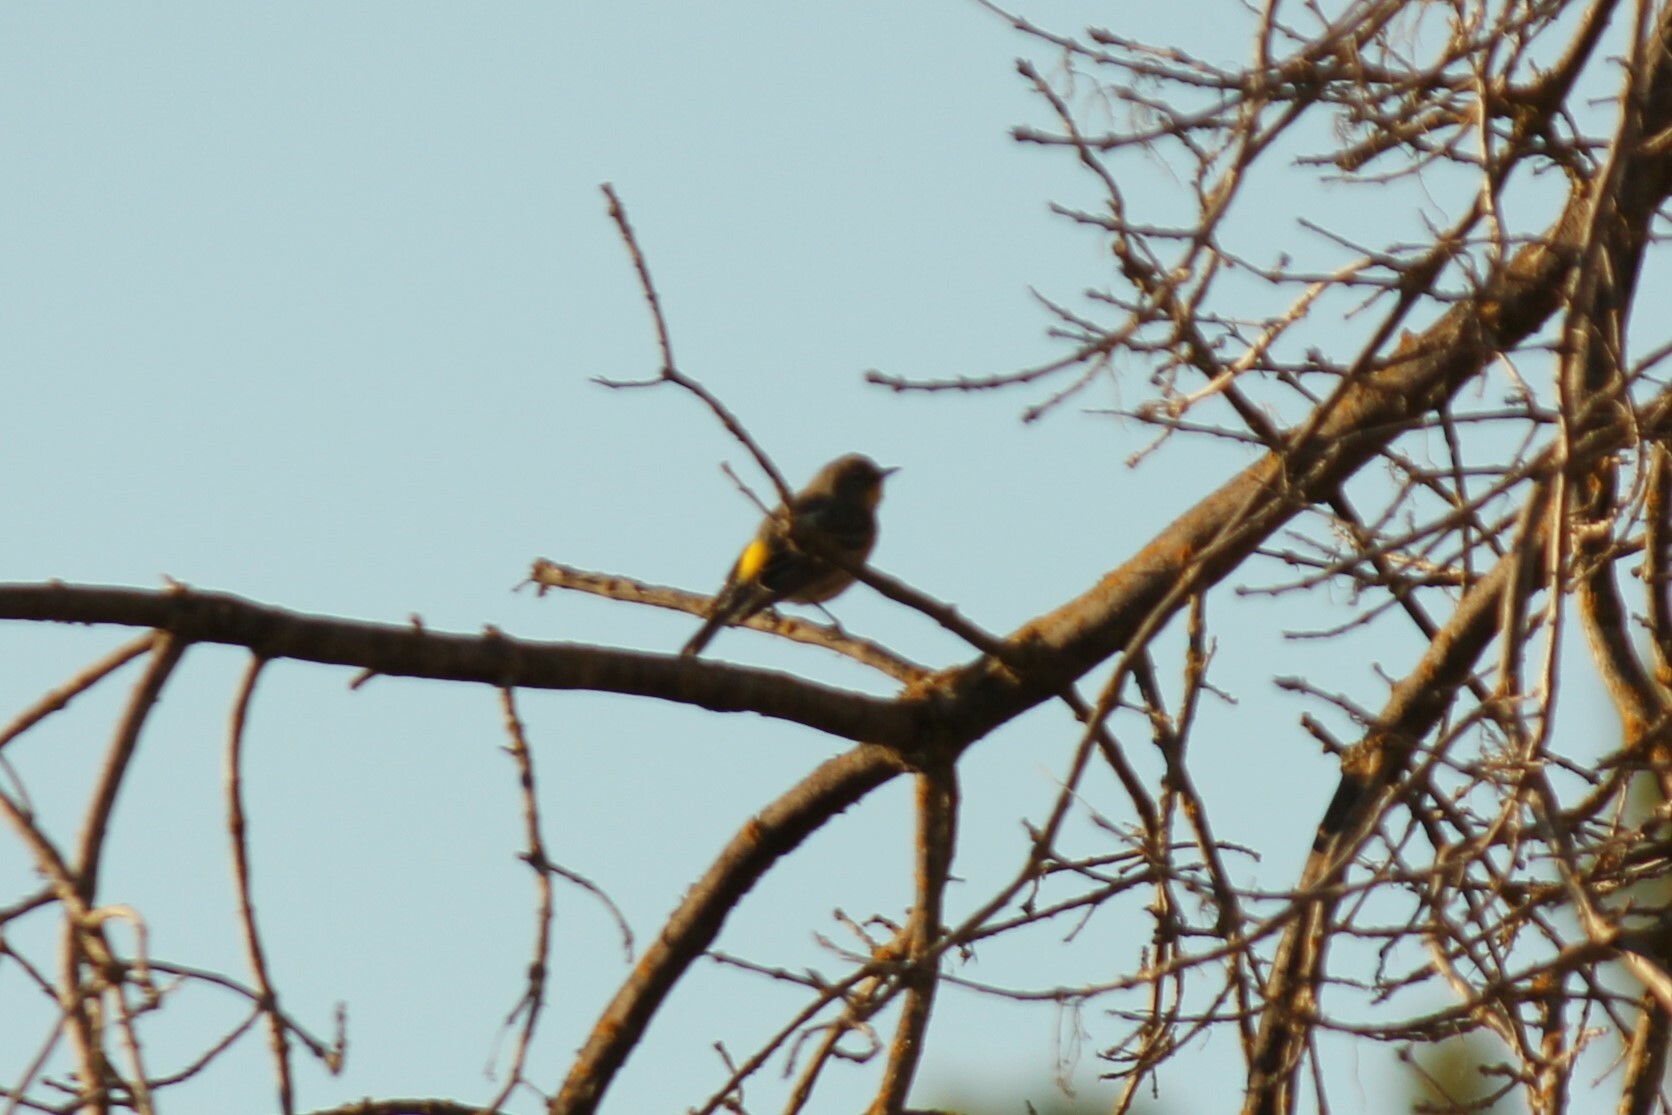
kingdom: Animalia
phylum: Chordata
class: Aves
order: Passeriformes
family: Parulidae
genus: Setophaga
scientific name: Setophaga coronata
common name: Myrtle warbler
